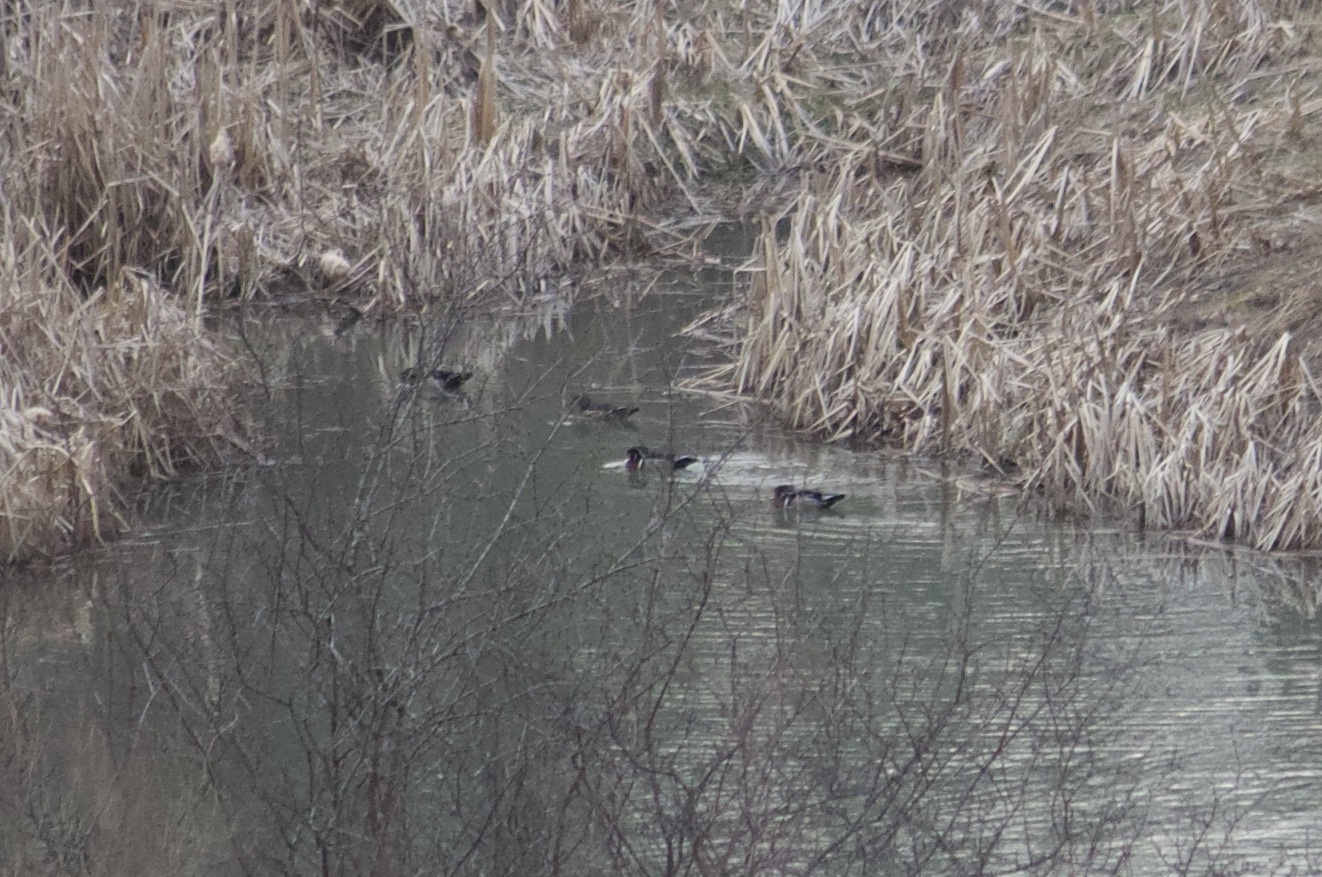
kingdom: Animalia
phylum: Chordata
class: Aves
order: Anseriformes
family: Anatidae
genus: Aix
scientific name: Aix sponsa
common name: Wood duck
